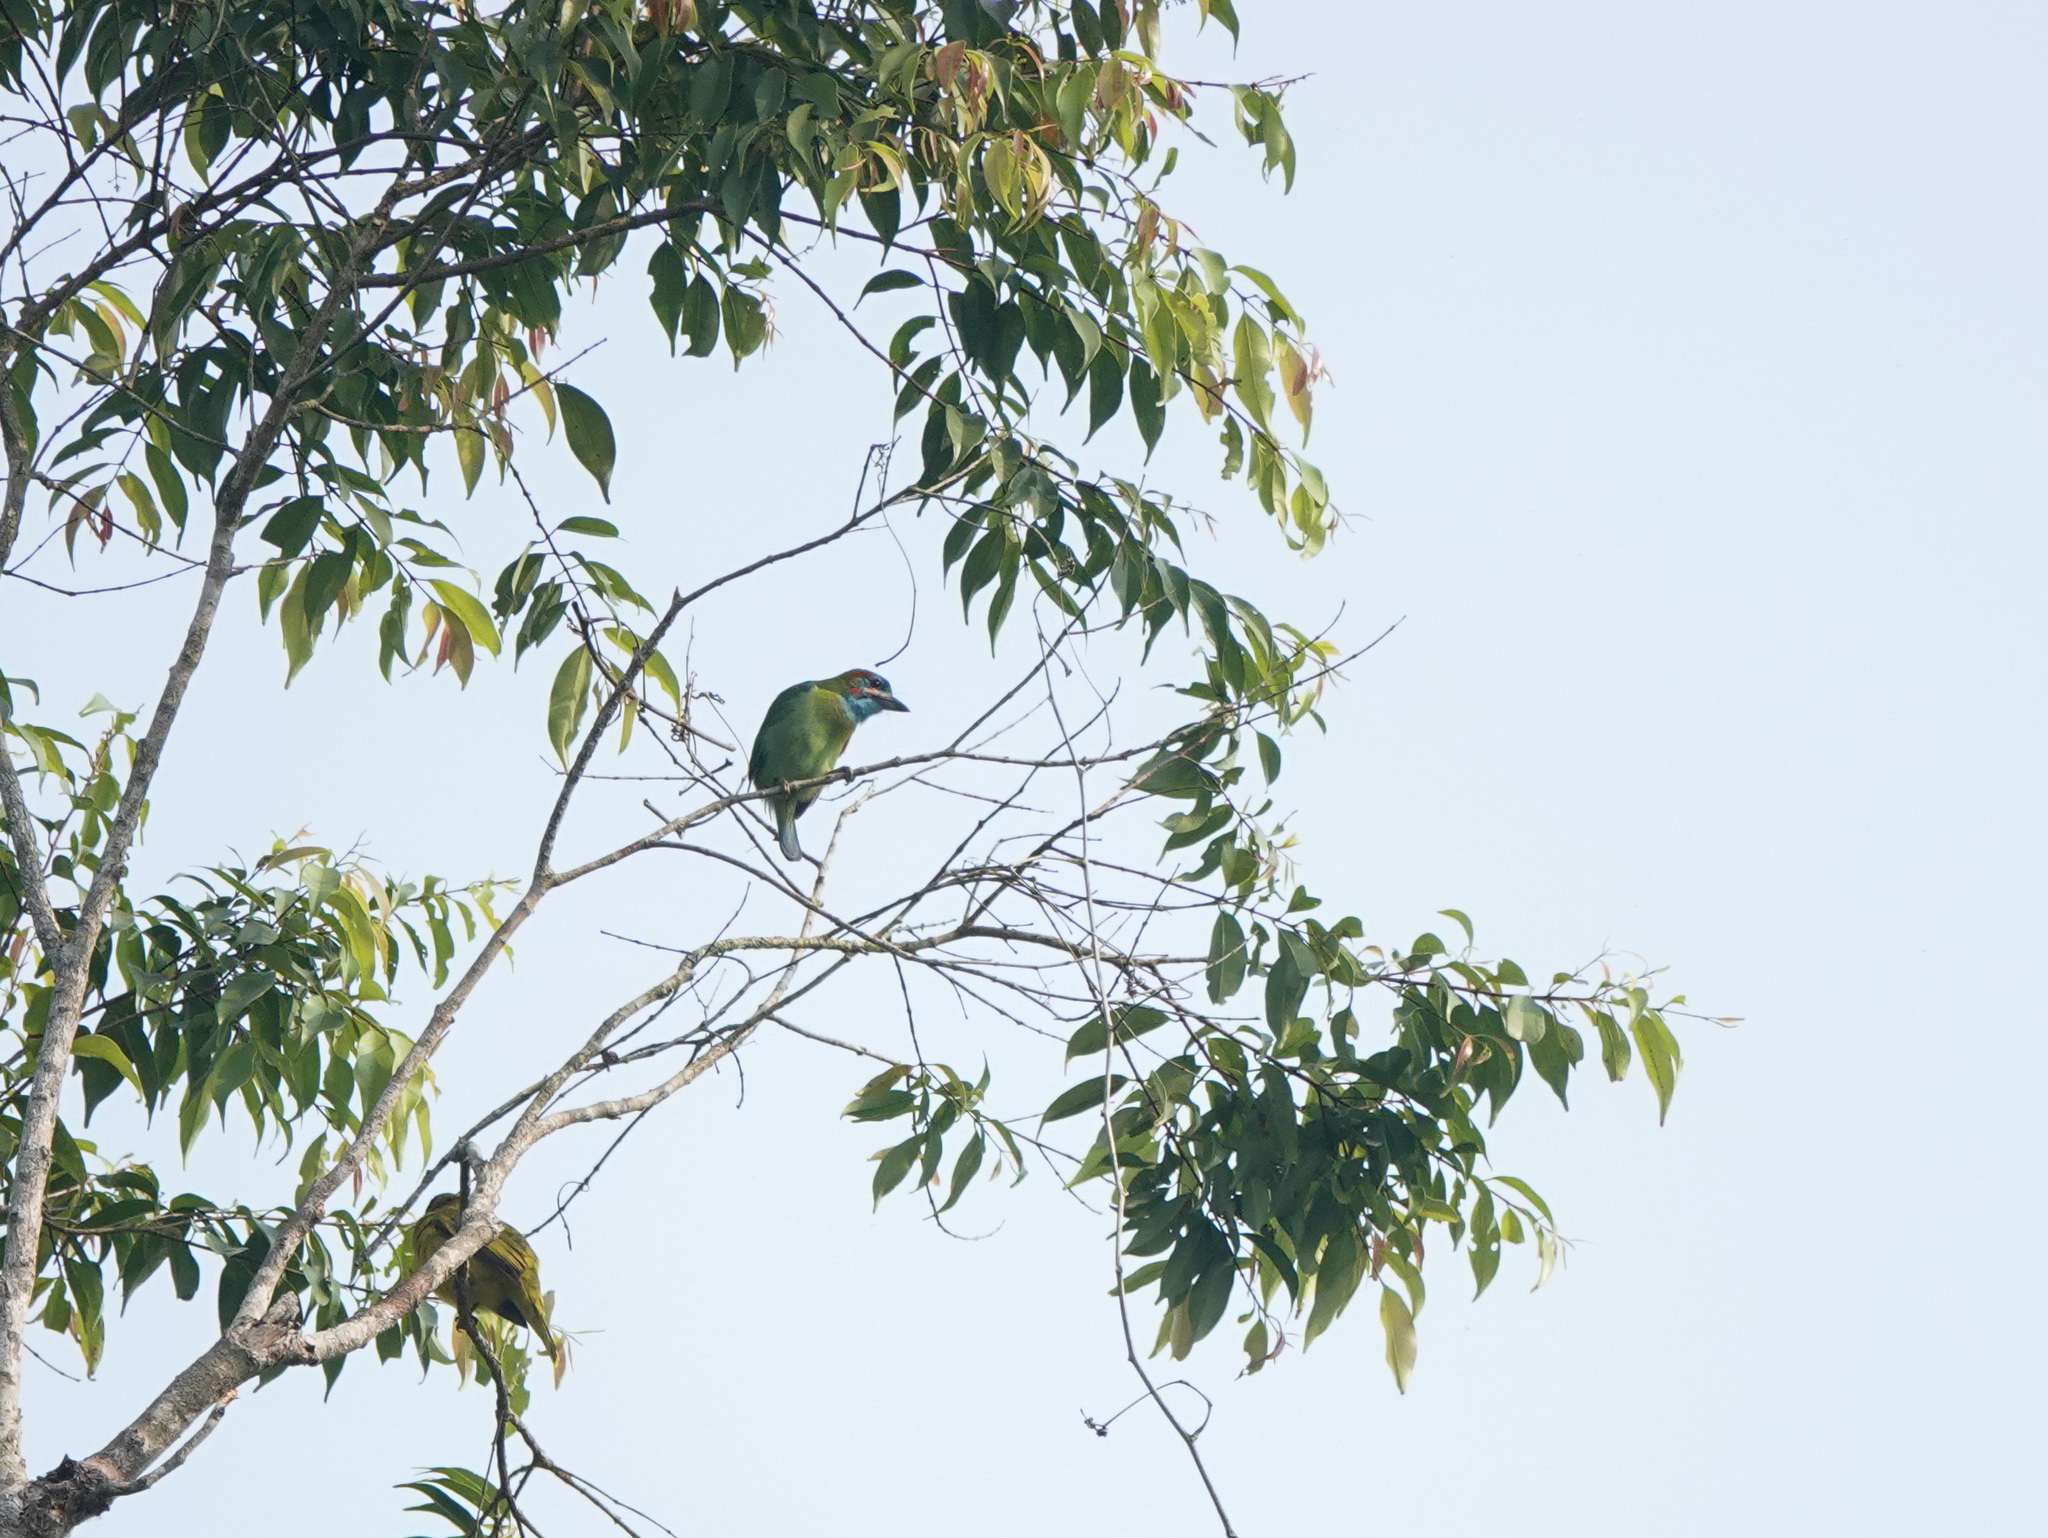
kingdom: Animalia
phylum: Chordata
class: Aves
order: Piciformes
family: Megalaimidae
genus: Psilopogon
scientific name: Psilopogon duvaucelii
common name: Blue-eared barbet
